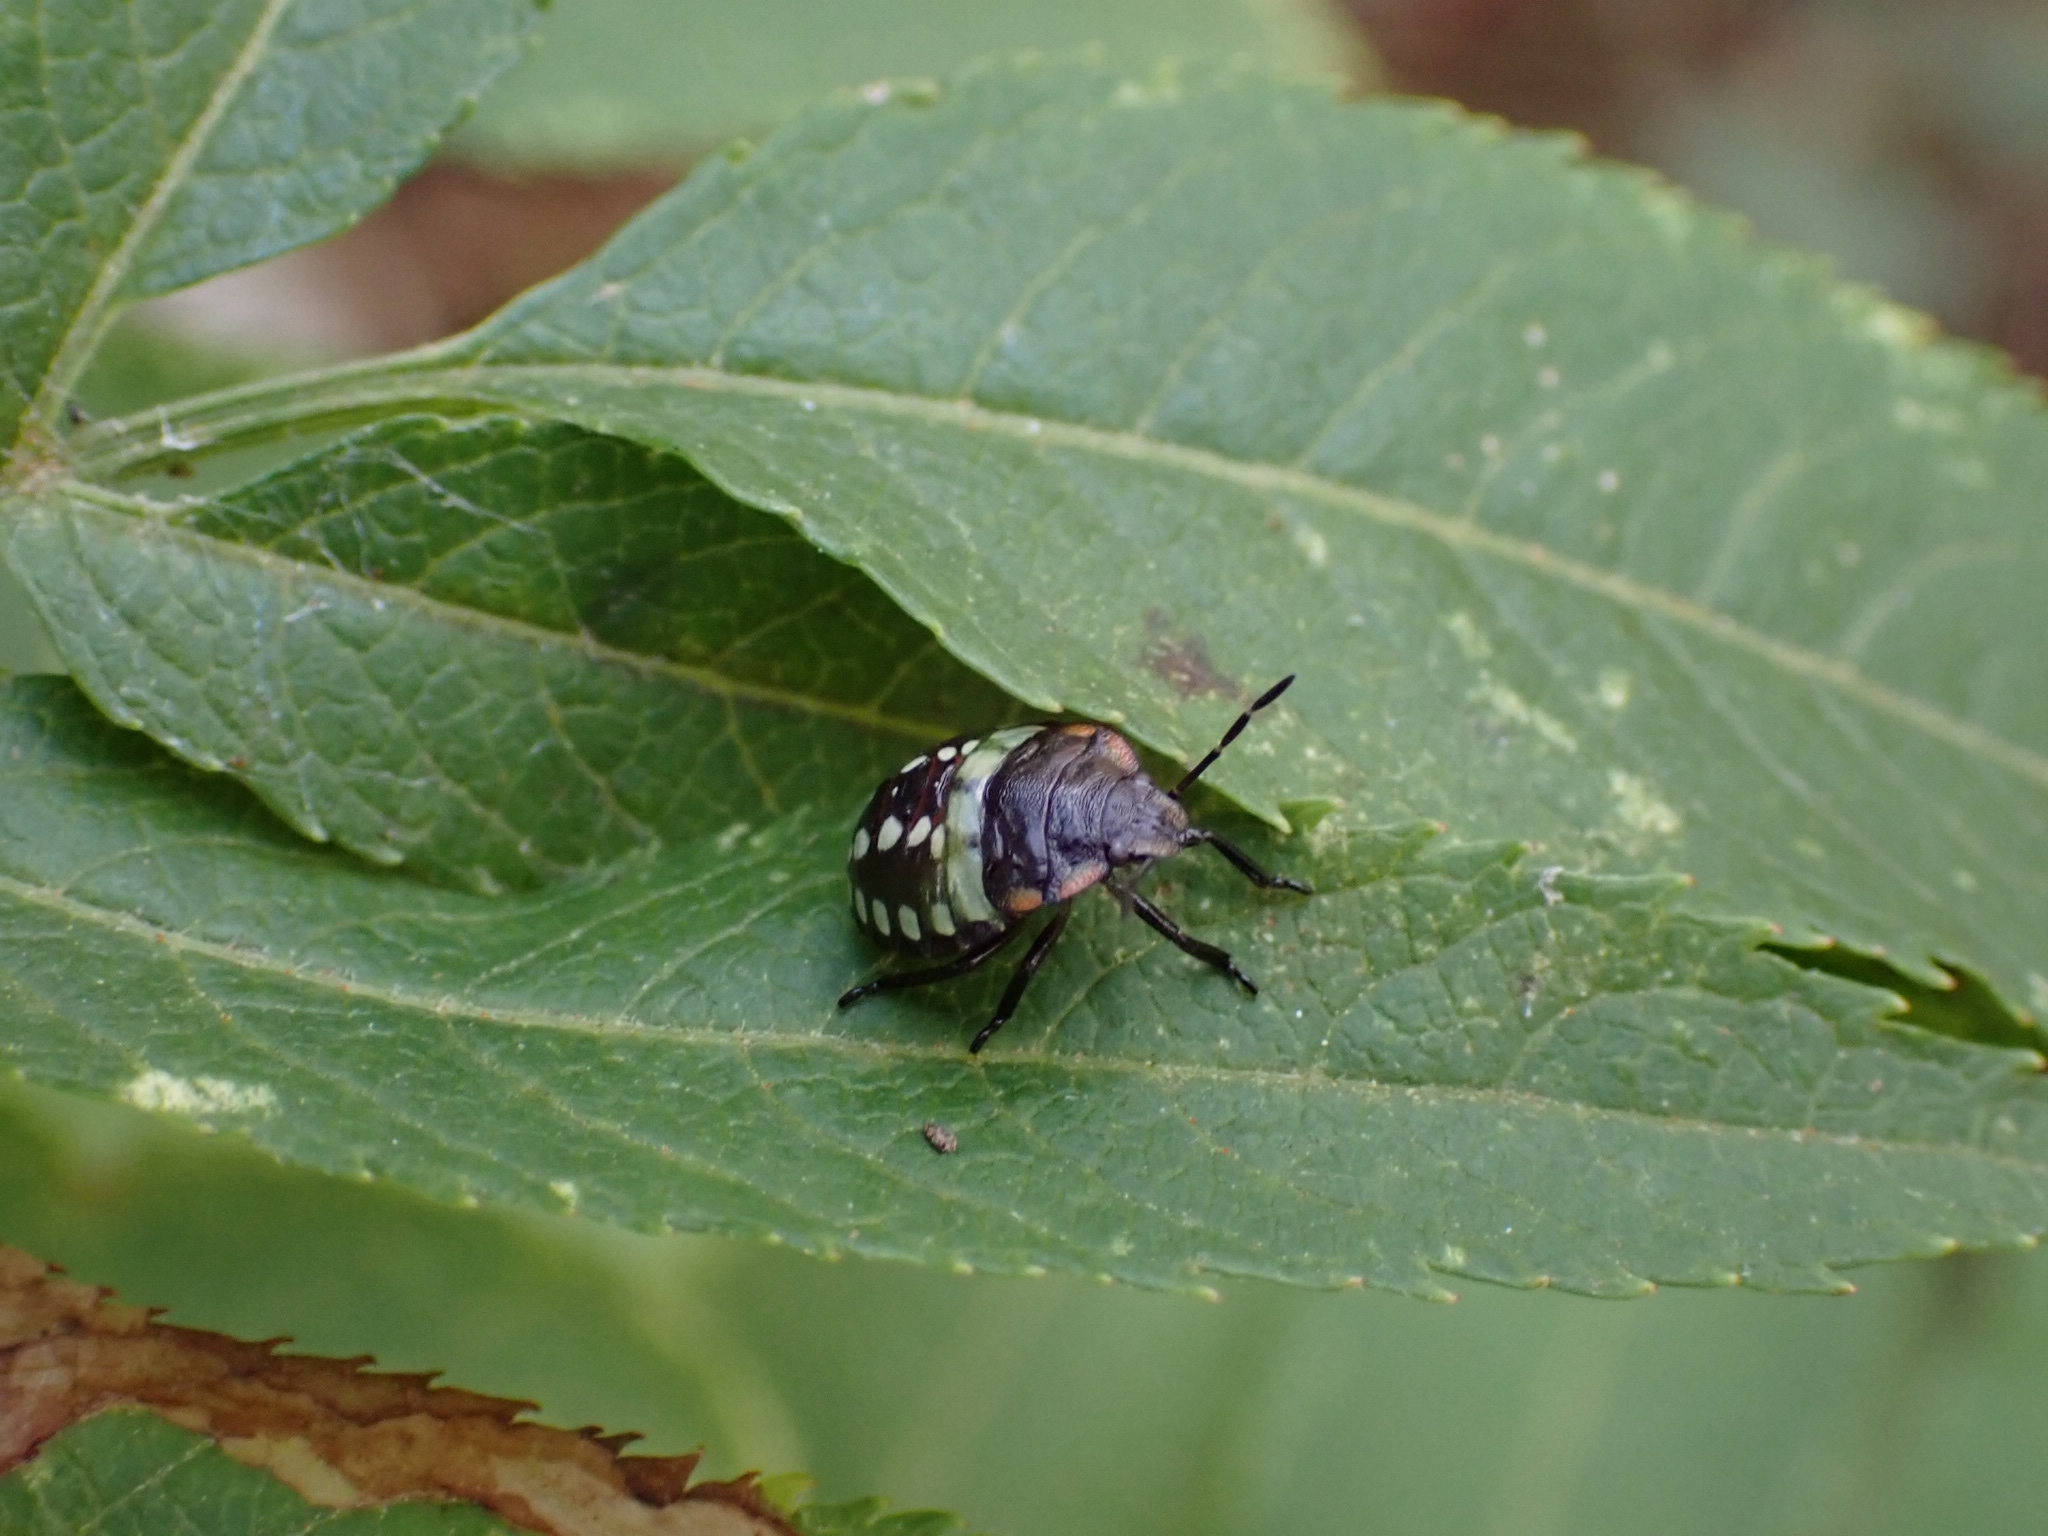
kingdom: Animalia
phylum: Arthropoda
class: Insecta
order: Hemiptera
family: Pentatomidae
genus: Nezara
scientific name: Nezara viridula
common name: Southern green stink bug
